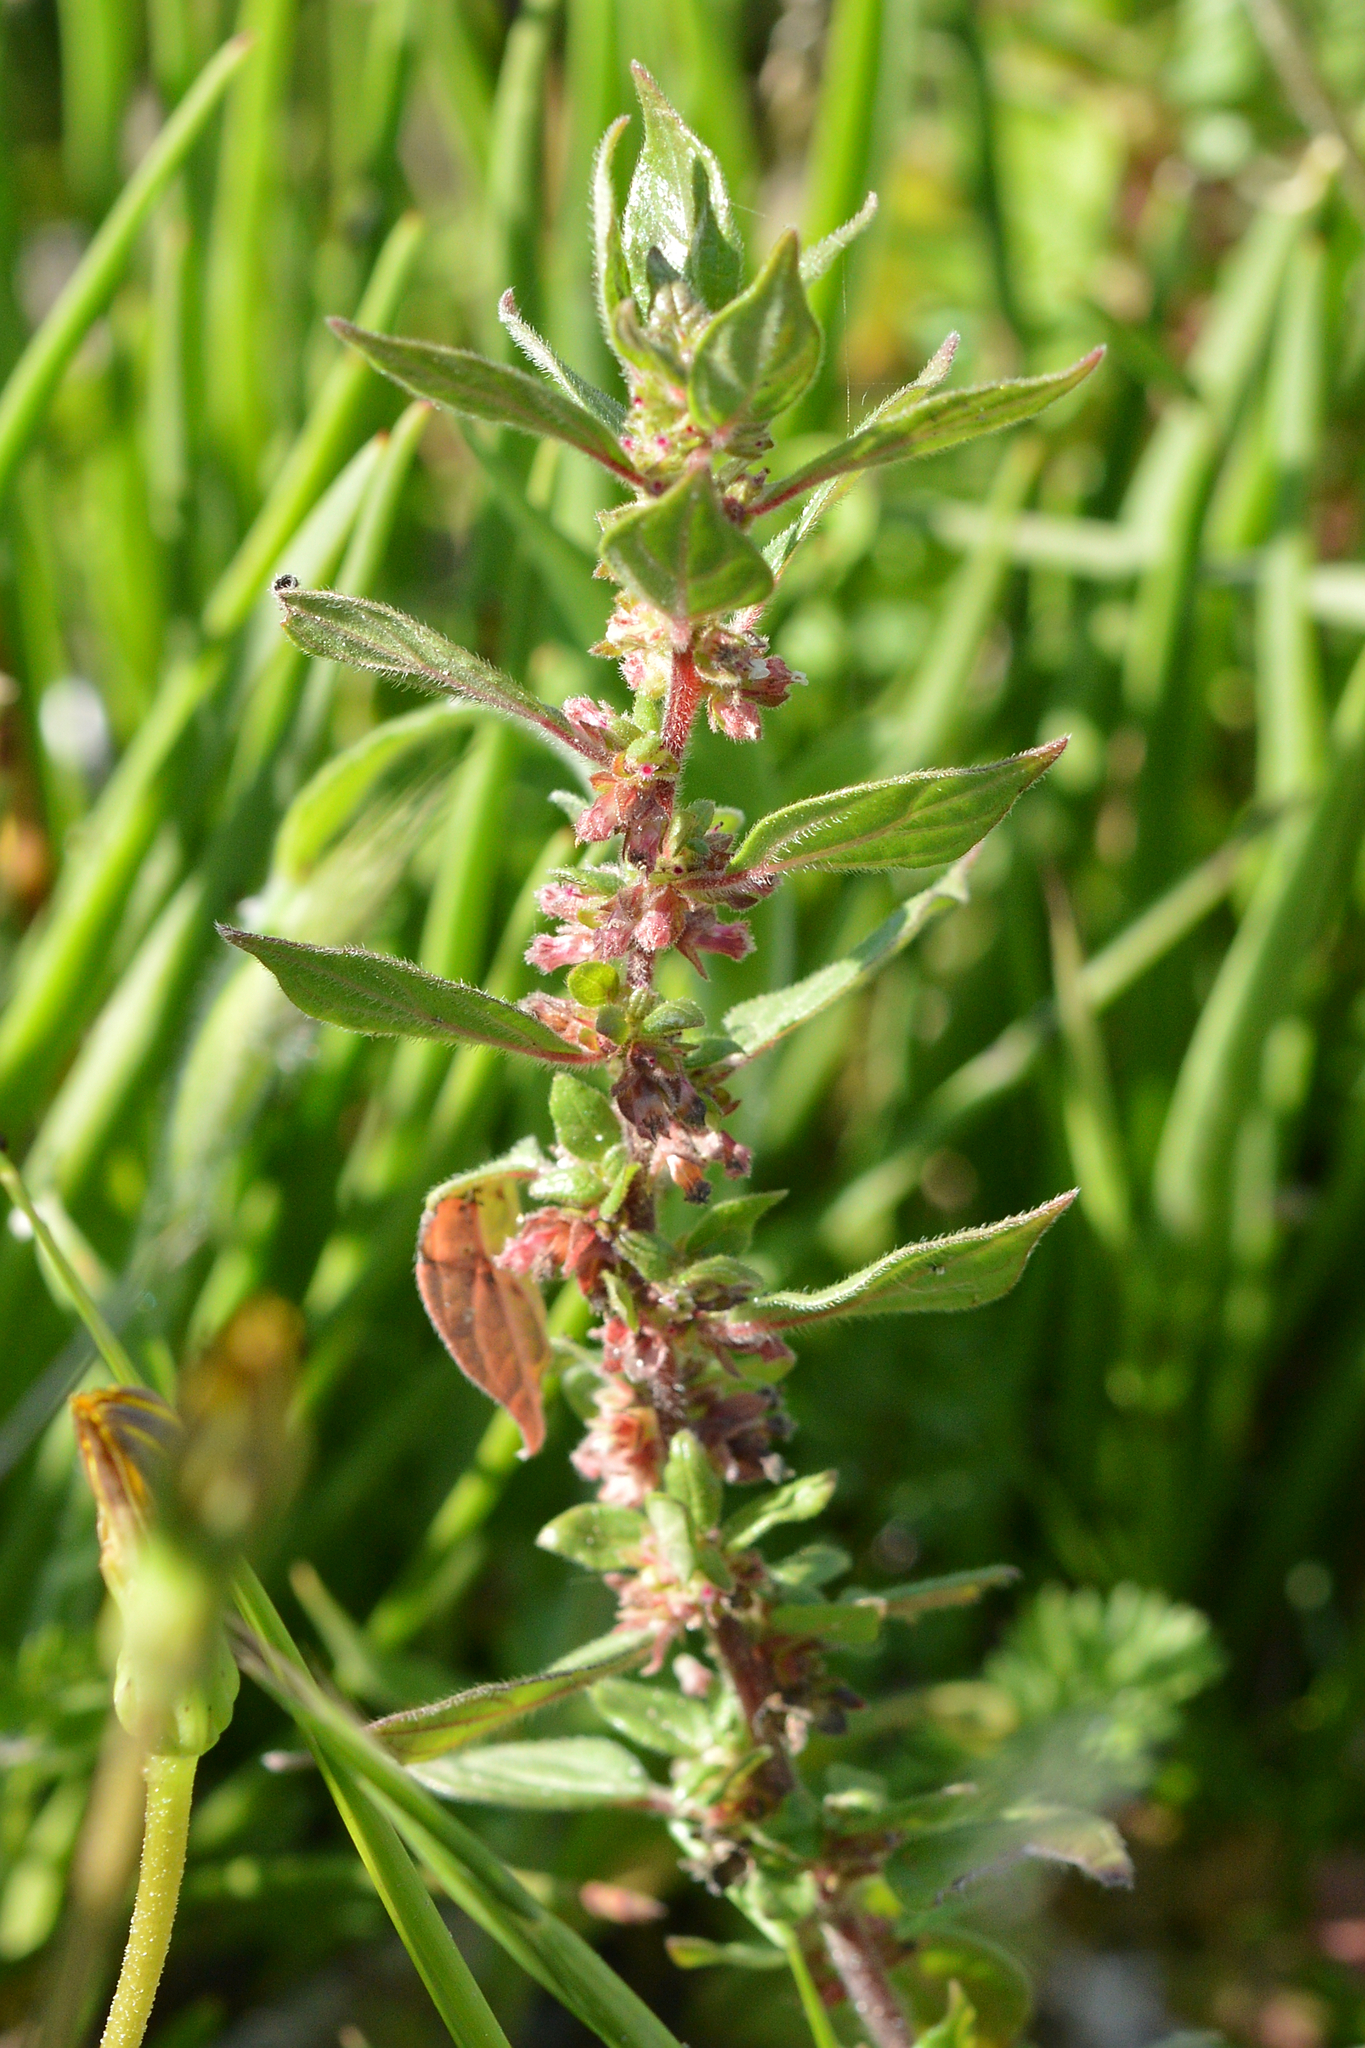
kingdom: Plantae
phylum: Tracheophyta
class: Magnoliopsida
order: Rosales
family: Urticaceae
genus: Parietaria
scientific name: Parietaria judaica
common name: Pellitory-of-the-wall
